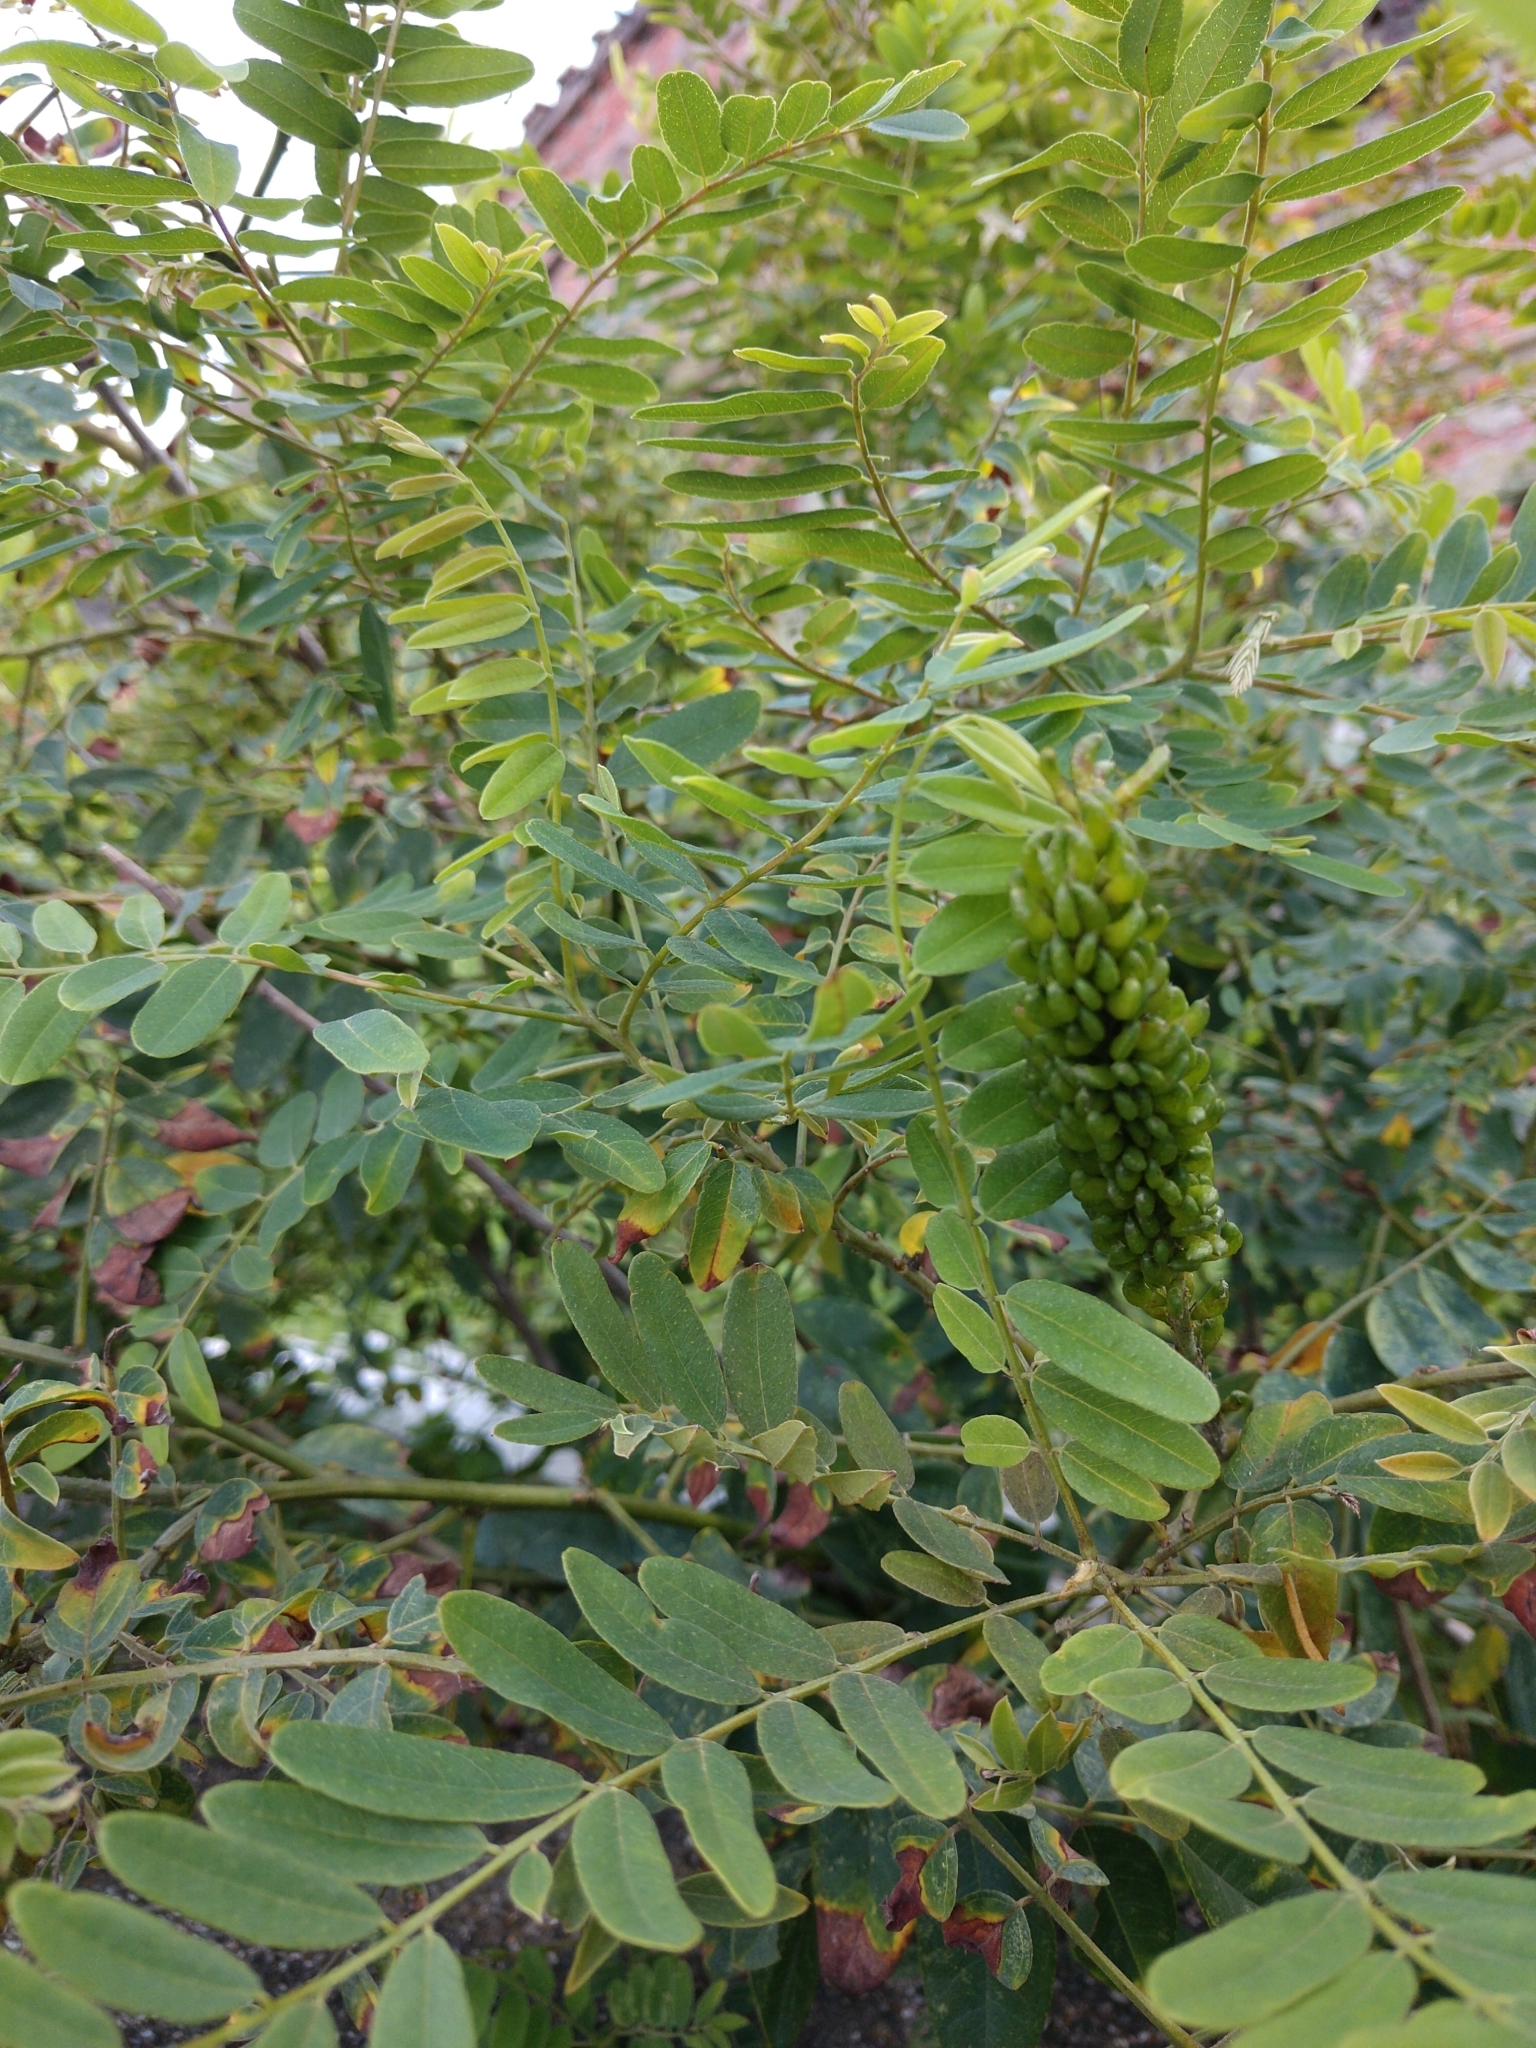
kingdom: Plantae
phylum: Tracheophyta
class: Magnoliopsida
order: Fabales
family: Fabaceae
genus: Amorpha
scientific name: Amorpha fruticosa
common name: False indigo
